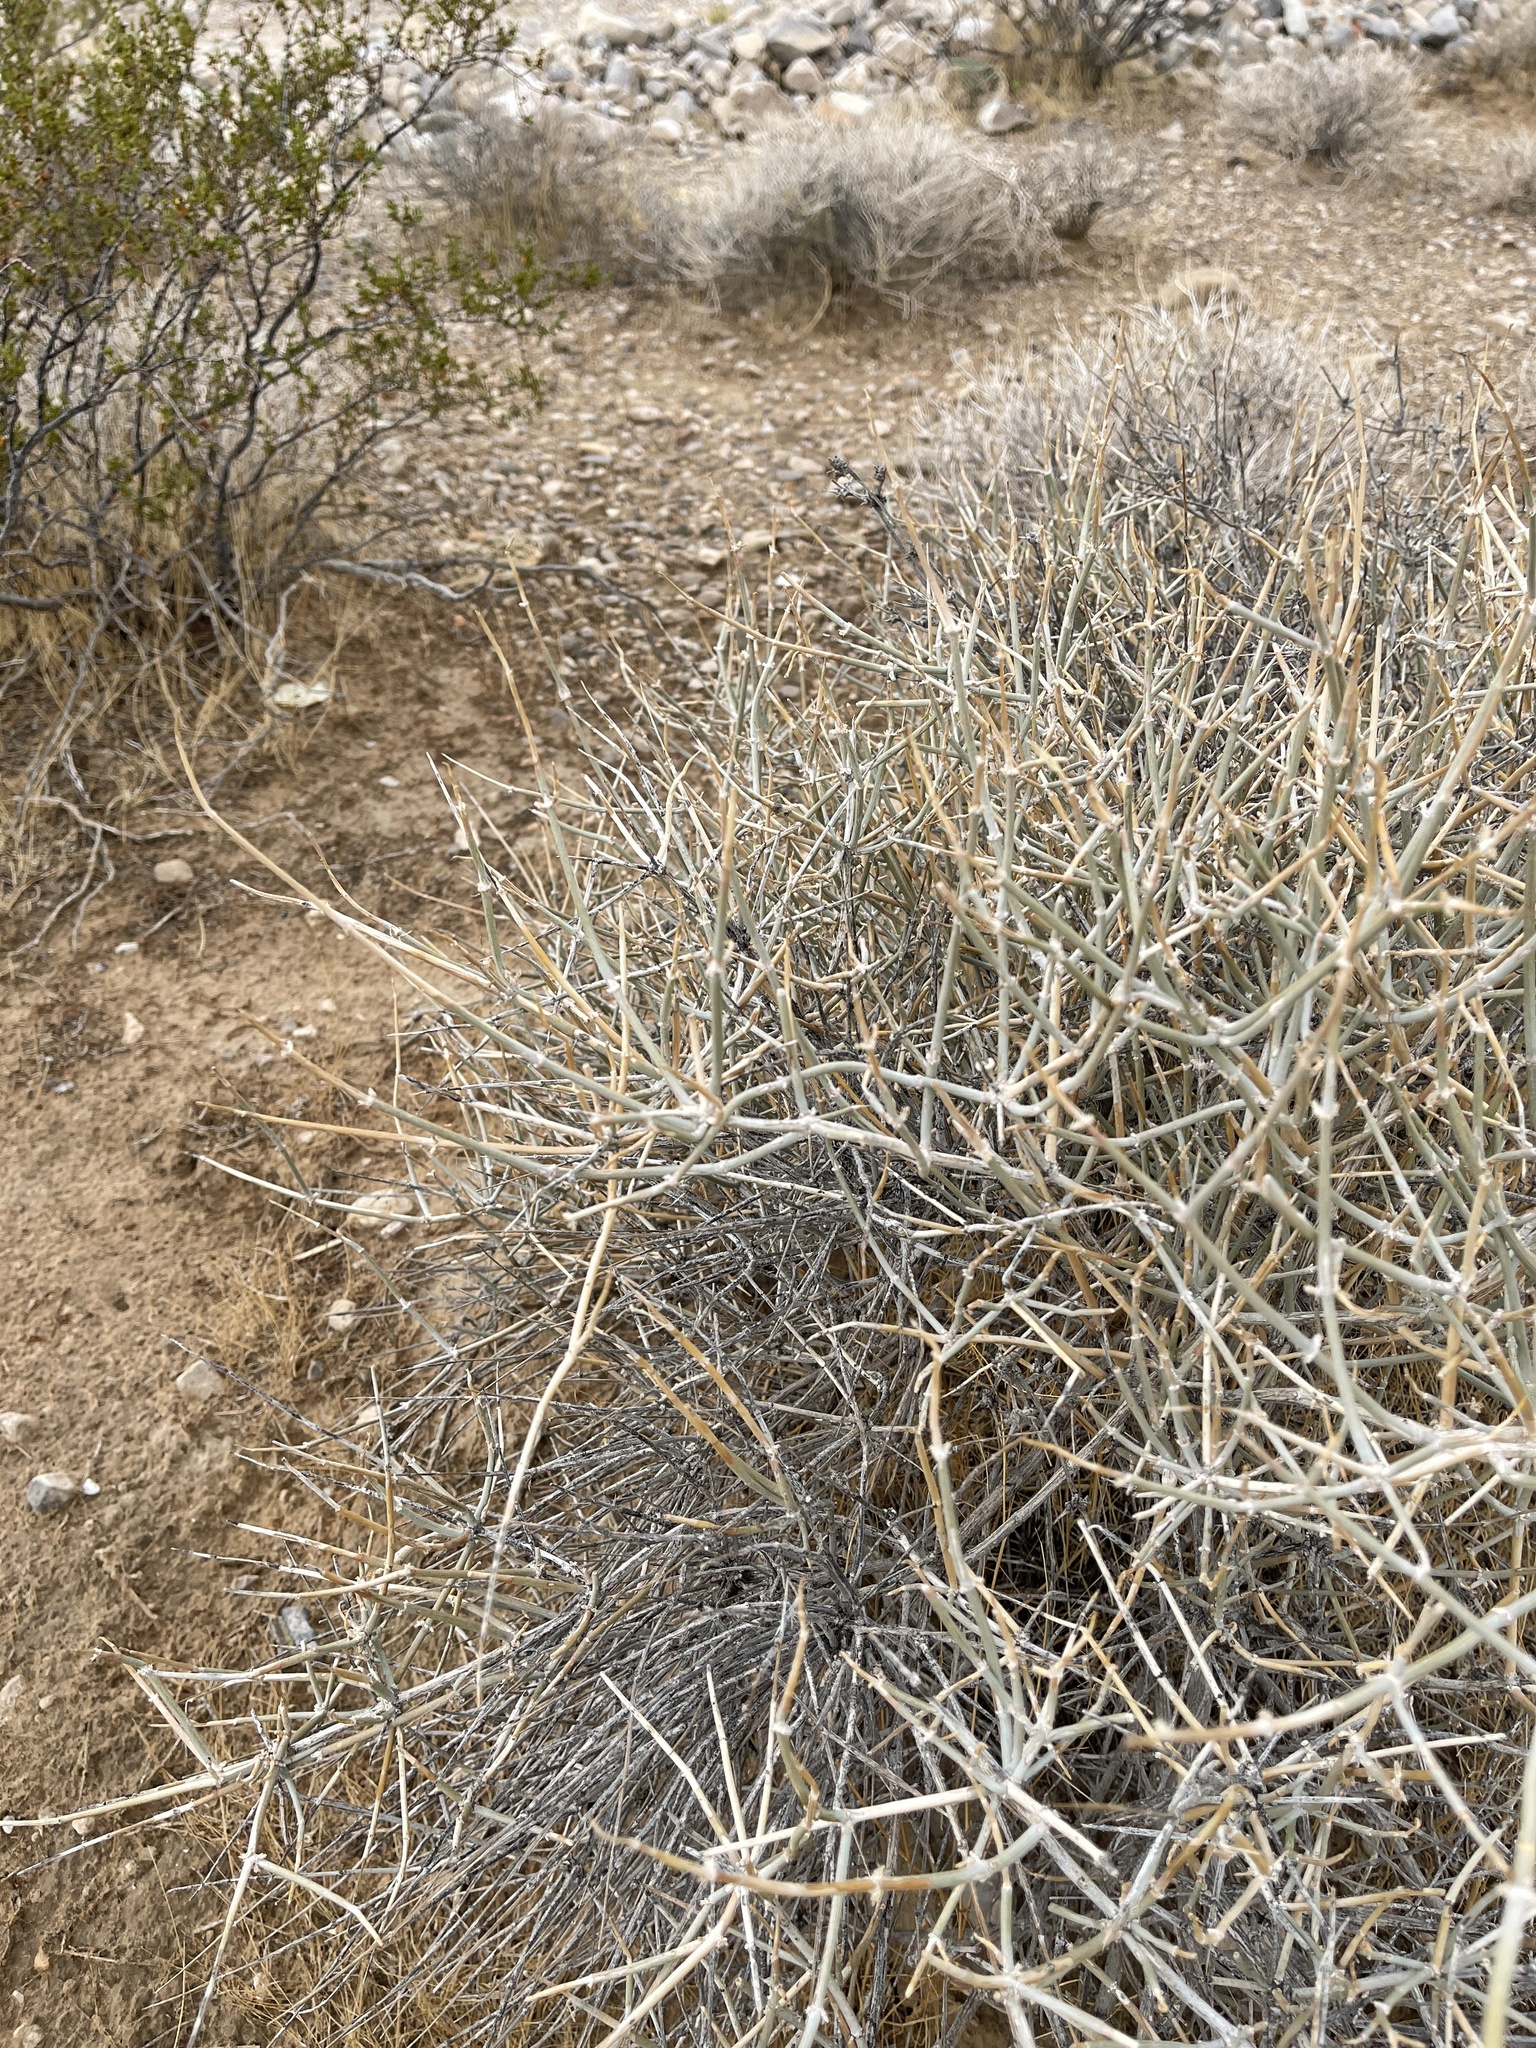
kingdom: Plantae
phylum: Tracheophyta
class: Gnetopsida
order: Ephedrales
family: Ephedraceae
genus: Ephedra
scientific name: Ephedra nevadensis
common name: Gray ephedra
